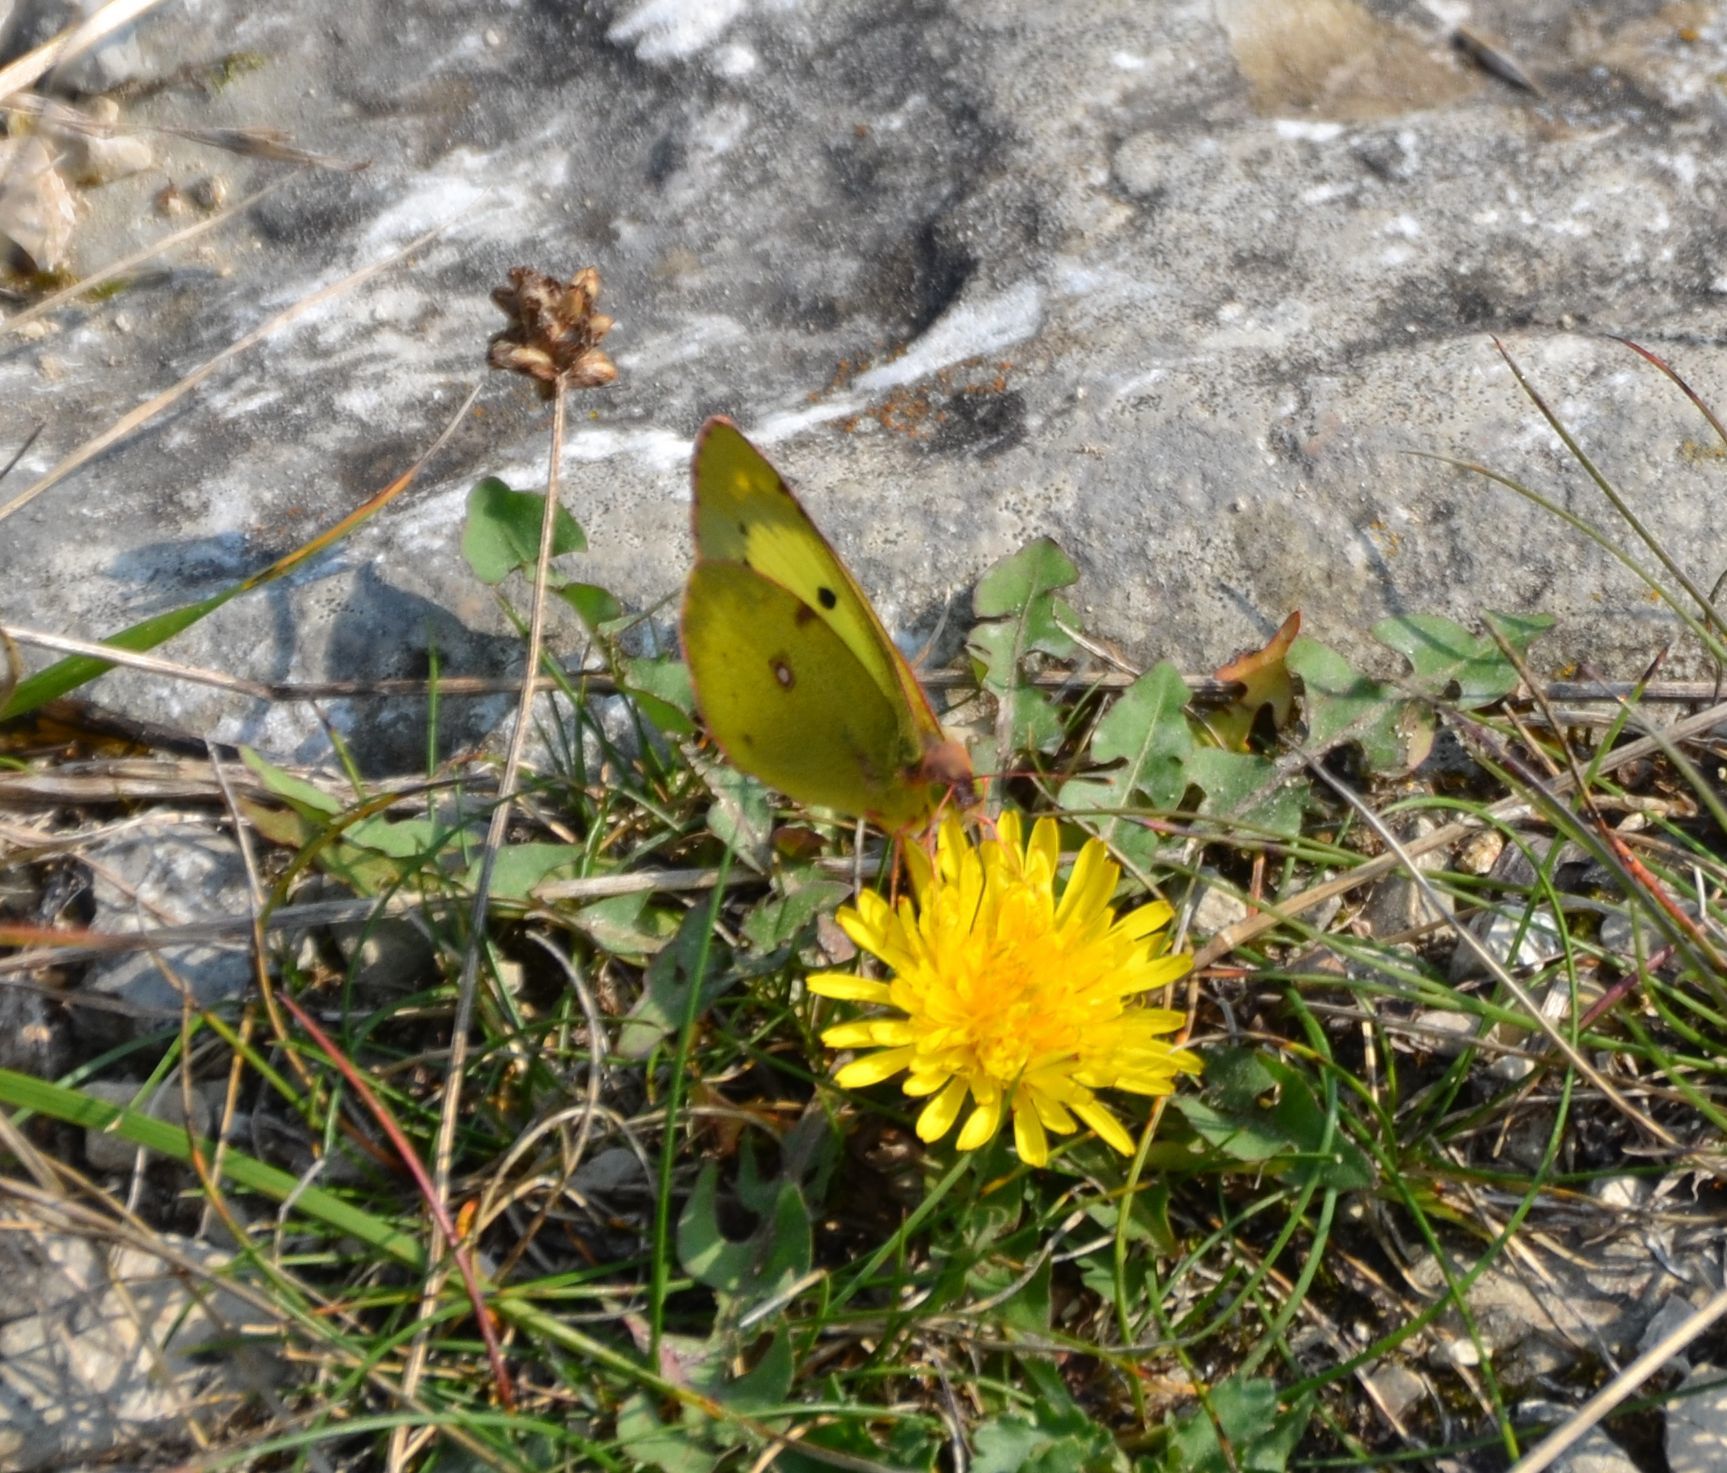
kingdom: Animalia
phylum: Arthropoda
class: Insecta
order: Lepidoptera
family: Pieridae
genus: Colias
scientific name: Colias alfacariensis
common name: Berger's clouded yellow
